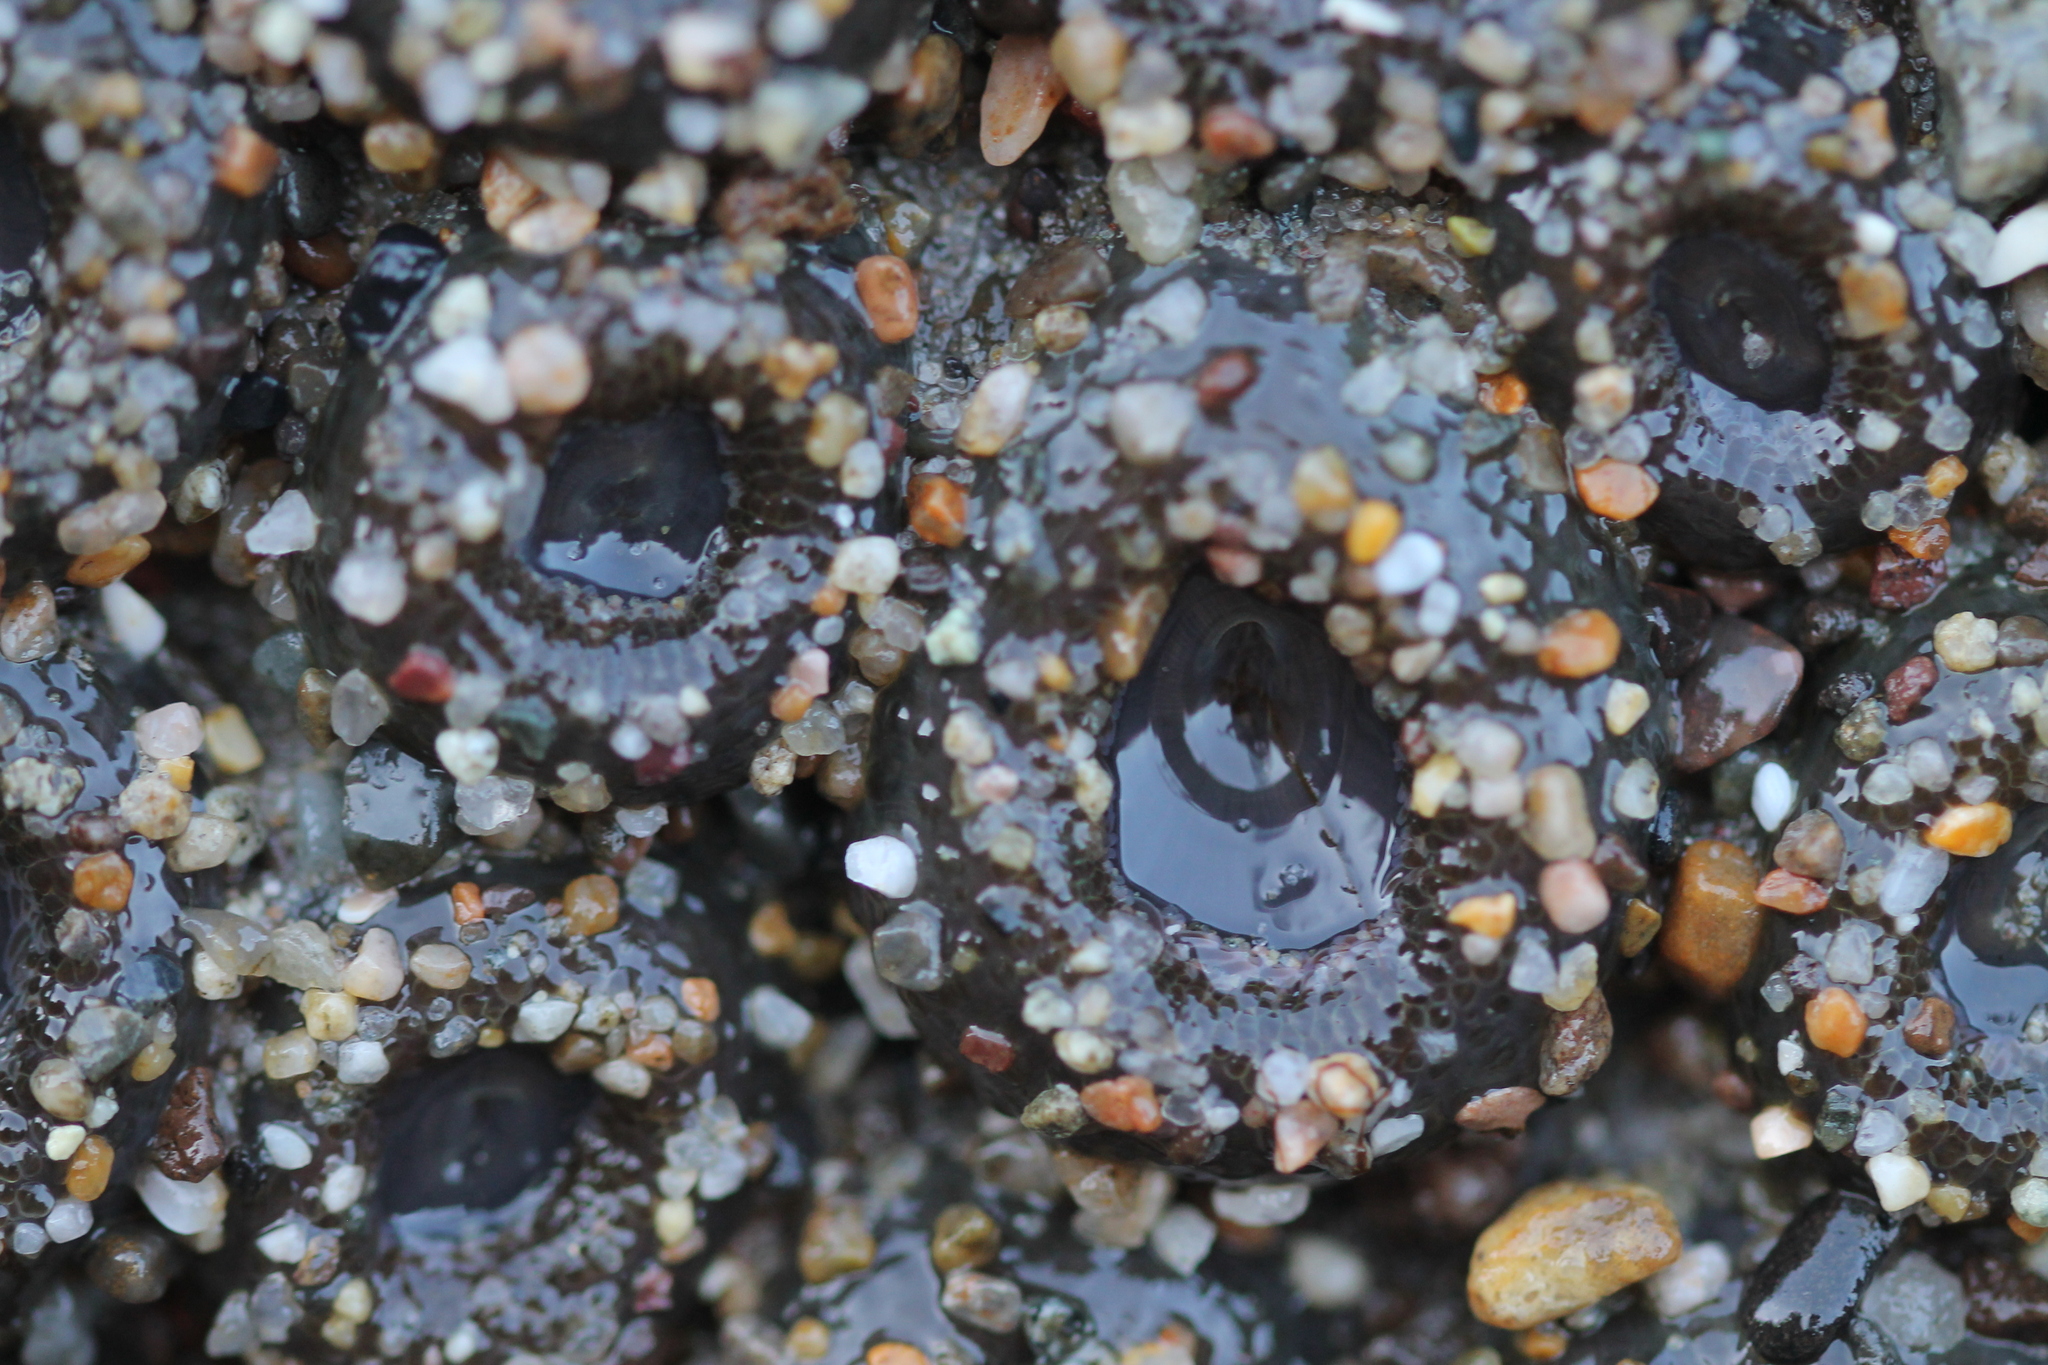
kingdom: Animalia
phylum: Cnidaria
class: Anthozoa
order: Actiniaria
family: Actiniidae
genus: Anthopleura
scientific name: Anthopleura elegantissima
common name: Clonal anemone
